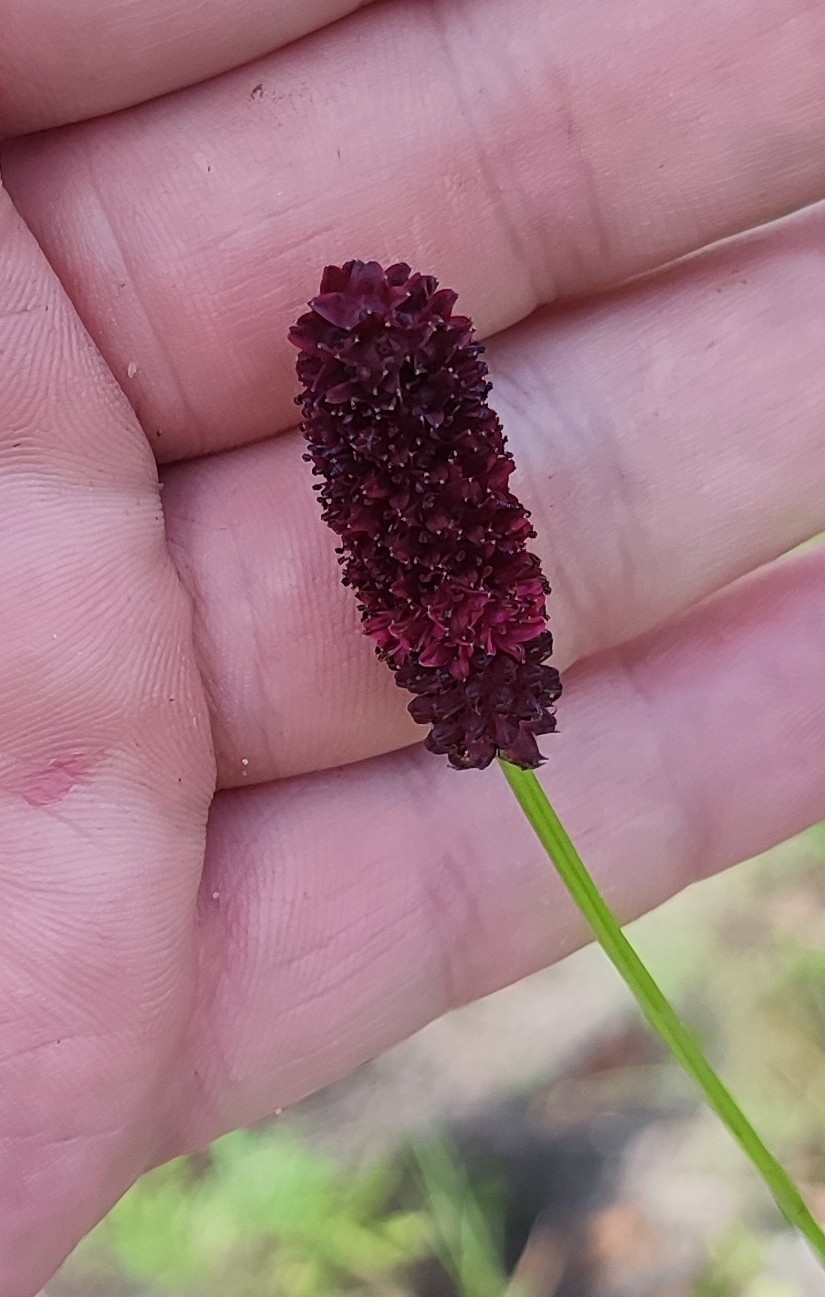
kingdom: Plantae
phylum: Tracheophyta
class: Magnoliopsida
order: Rosales
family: Rosaceae
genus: Sanguisorba
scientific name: Sanguisorba officinalis
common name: Great burnet
